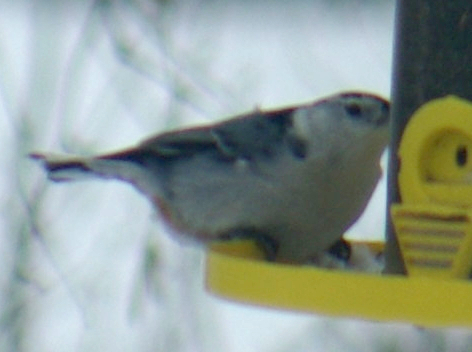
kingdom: Animalia
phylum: Chordata
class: Aves
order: Passeriformes
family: Sittidae
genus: Sitta
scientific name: Sitta carolinensis
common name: White-breasted nuthatch
